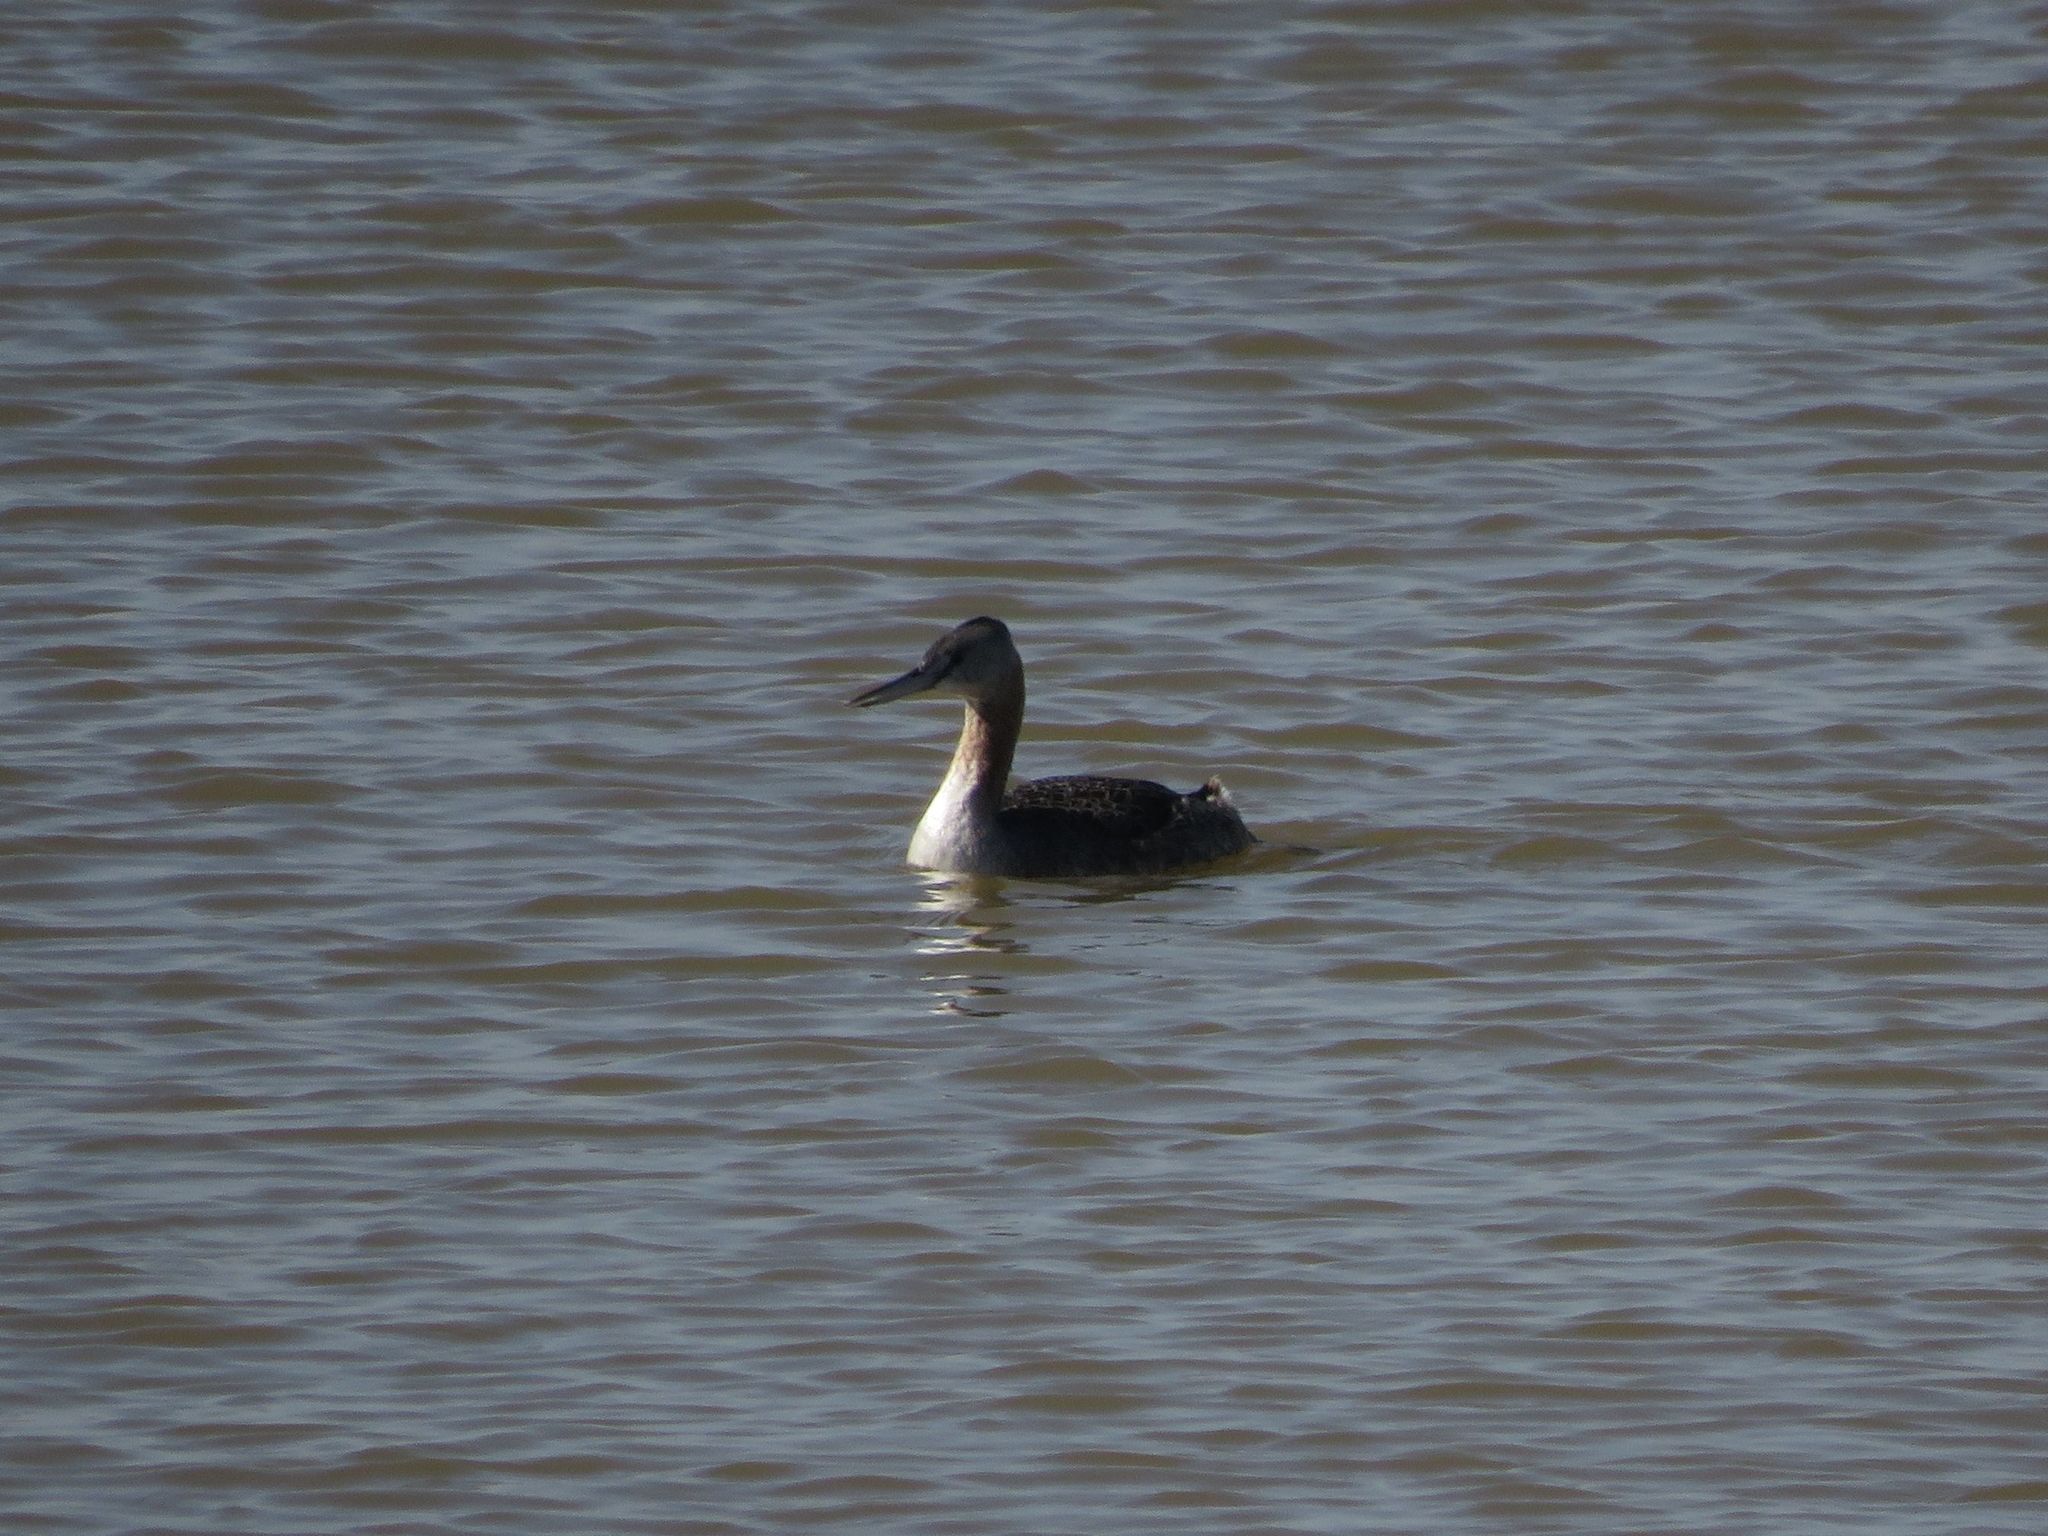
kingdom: Animalia
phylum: Chordata
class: Aves
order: Podicipediformes
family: Podicipedidae
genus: Podiceps
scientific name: Podiceps major
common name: Great grebe
